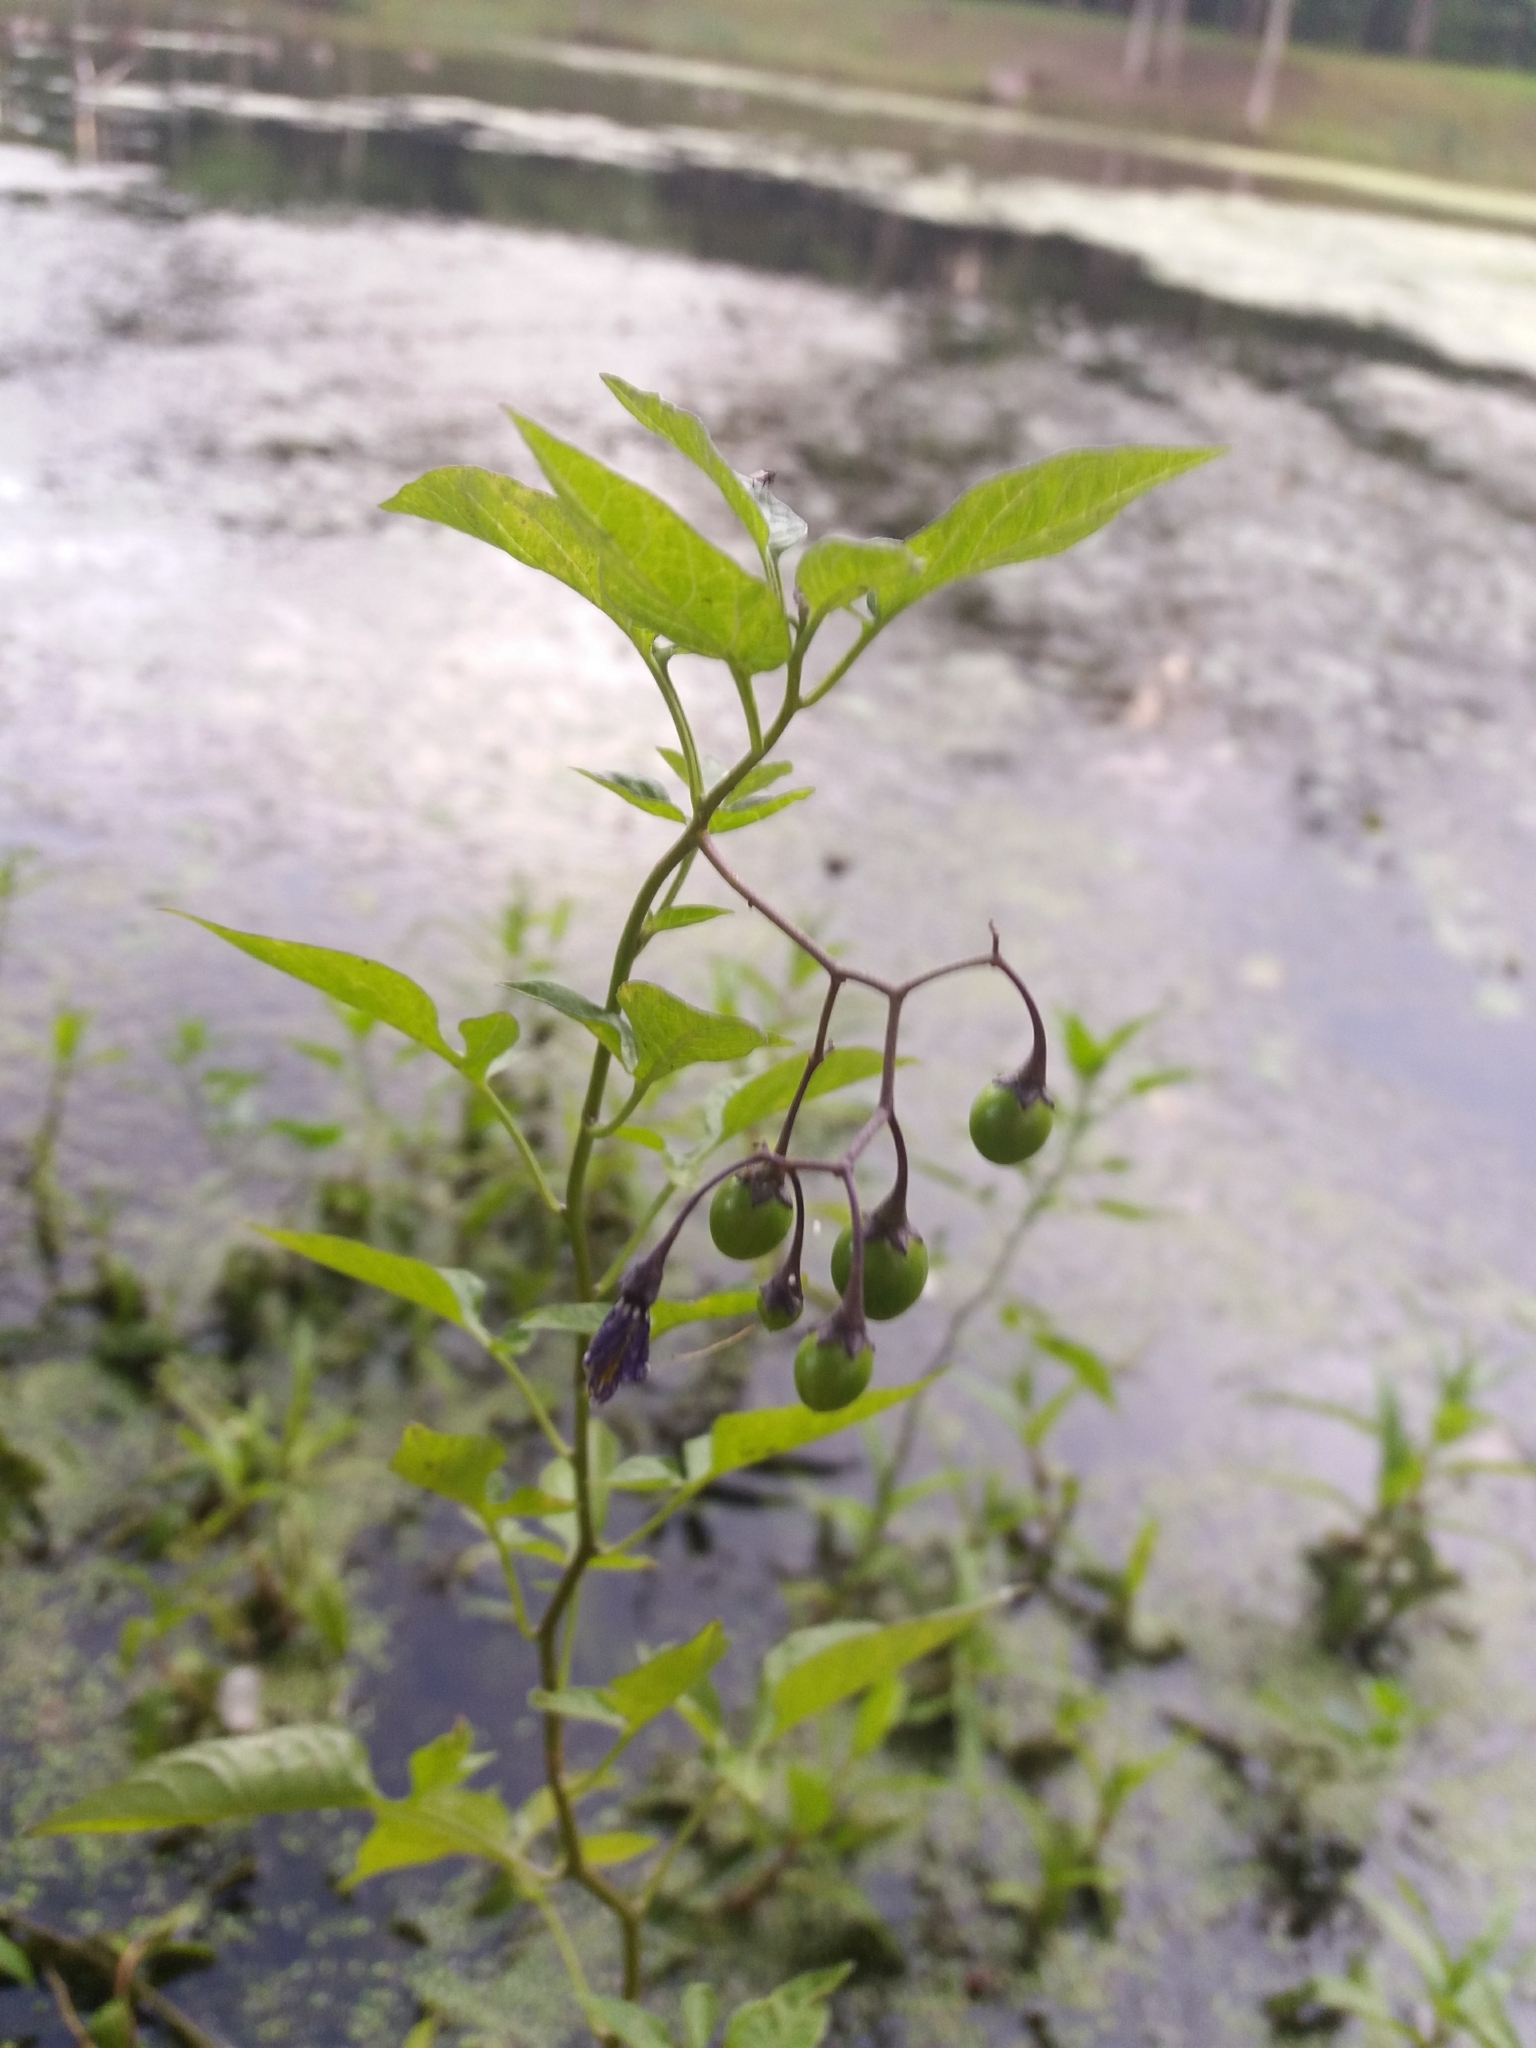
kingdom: Plantae
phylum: Tracheophyta
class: Magnoliopsida
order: Solanales
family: Solanaceae
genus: Solanum
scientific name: Solanum dulcamara
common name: Climbing nightshade
